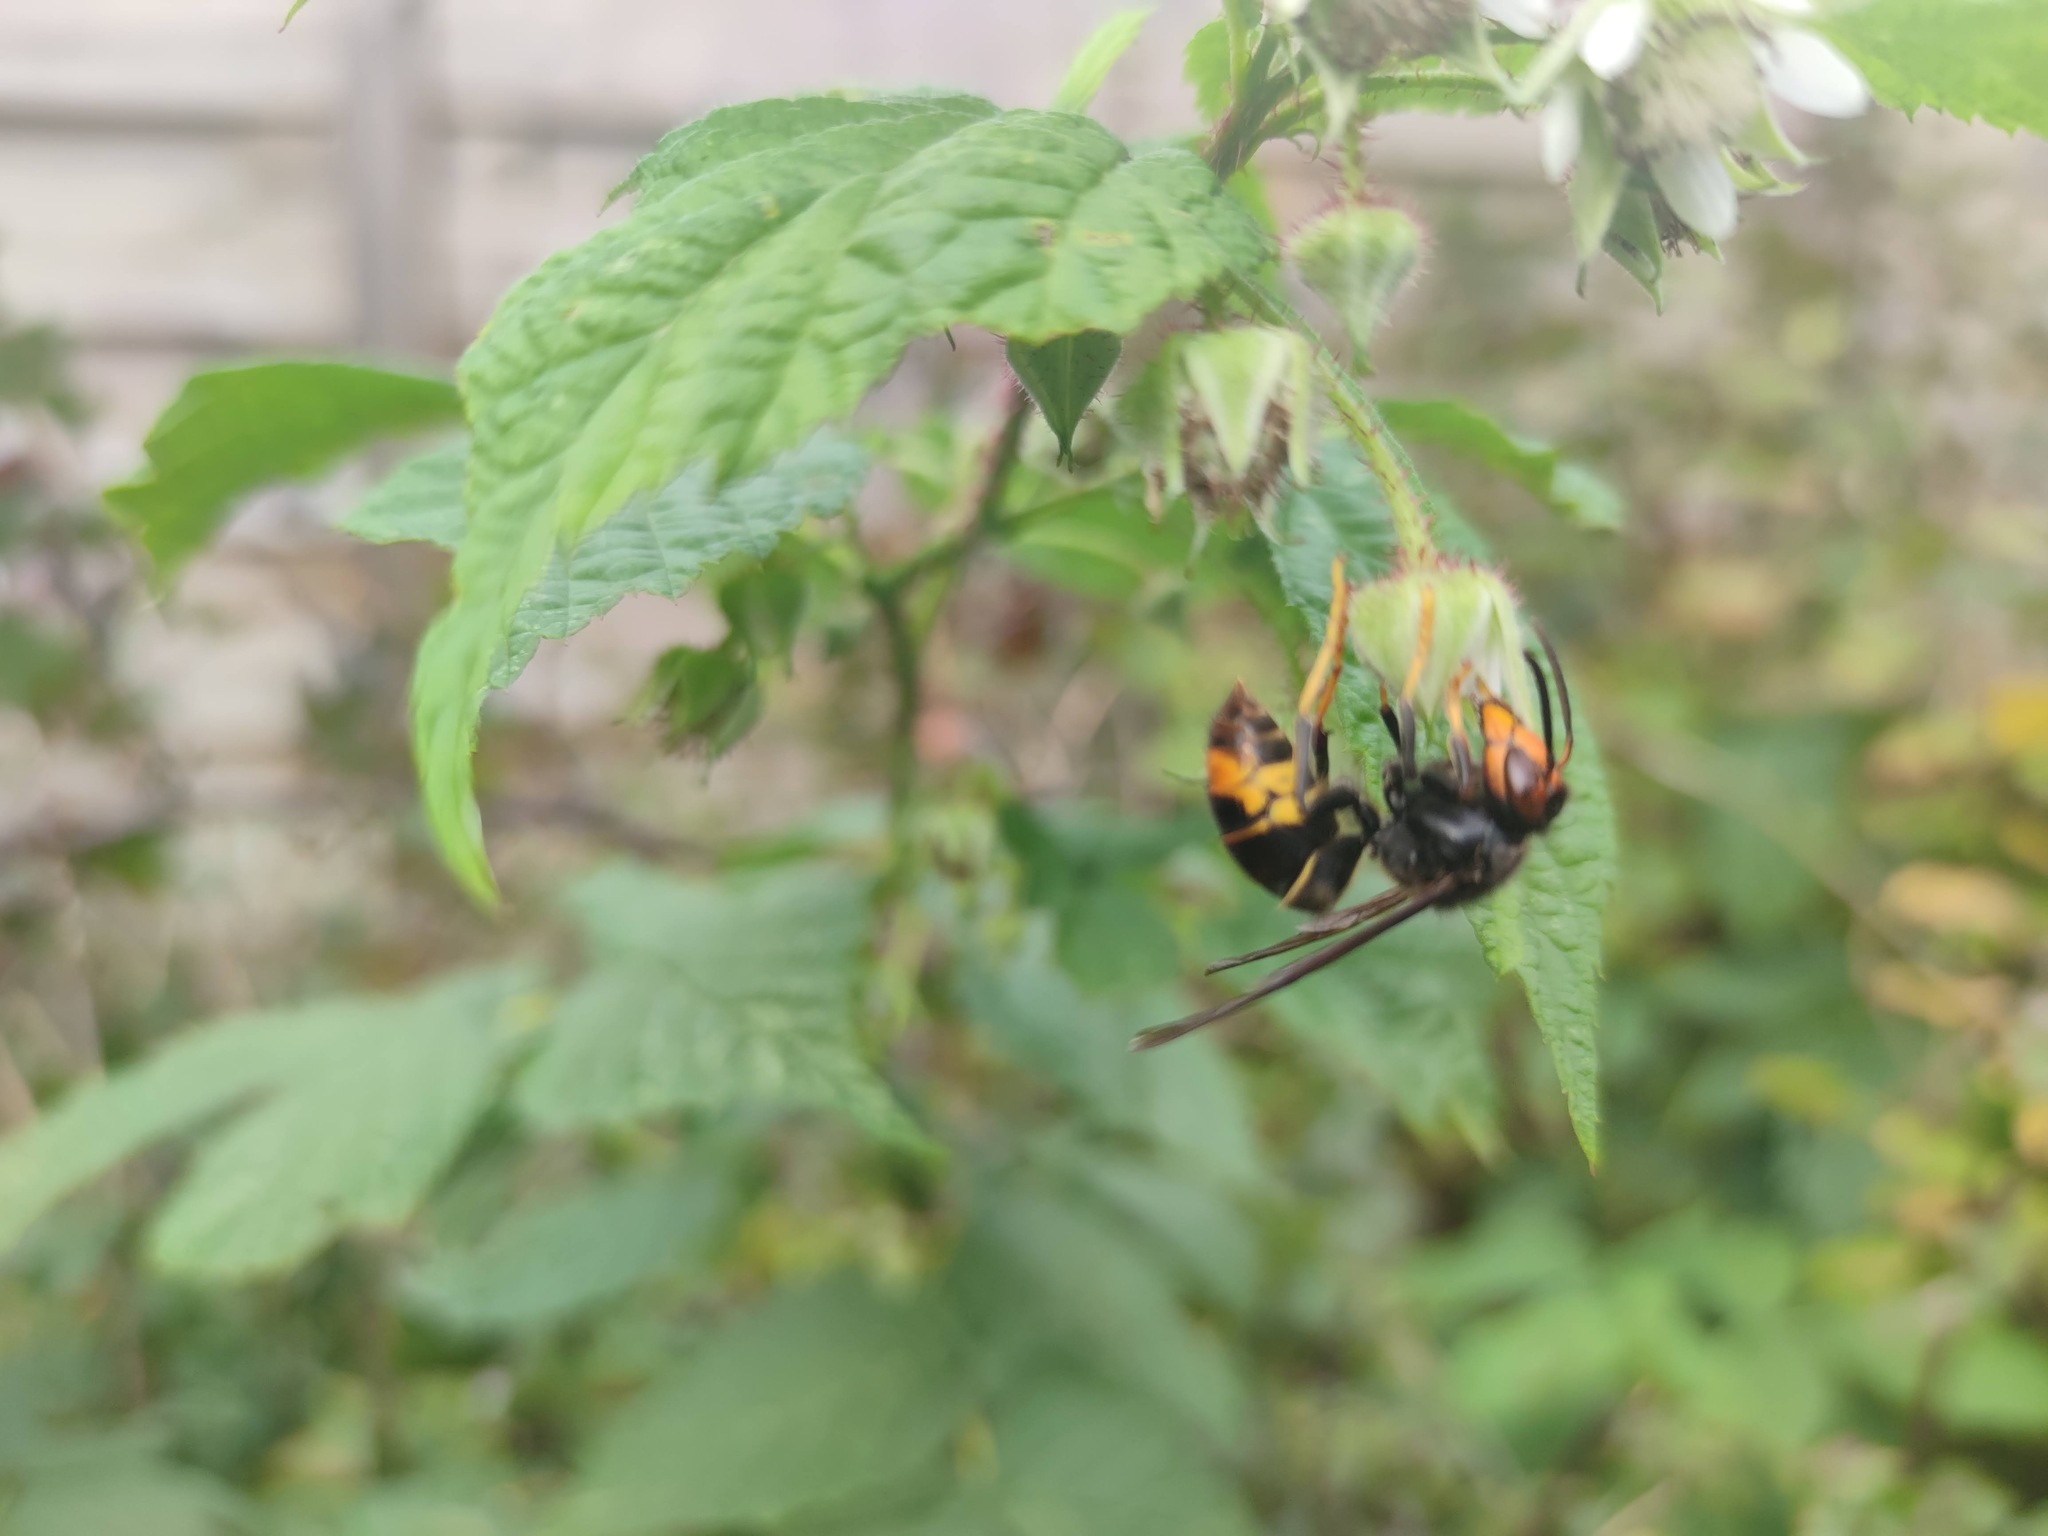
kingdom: Animalia
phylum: Arthropoda
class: Insecta
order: Hymenoptera
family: Vespidae
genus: Vespa
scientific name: Vespa velutina
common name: Asian hornet
